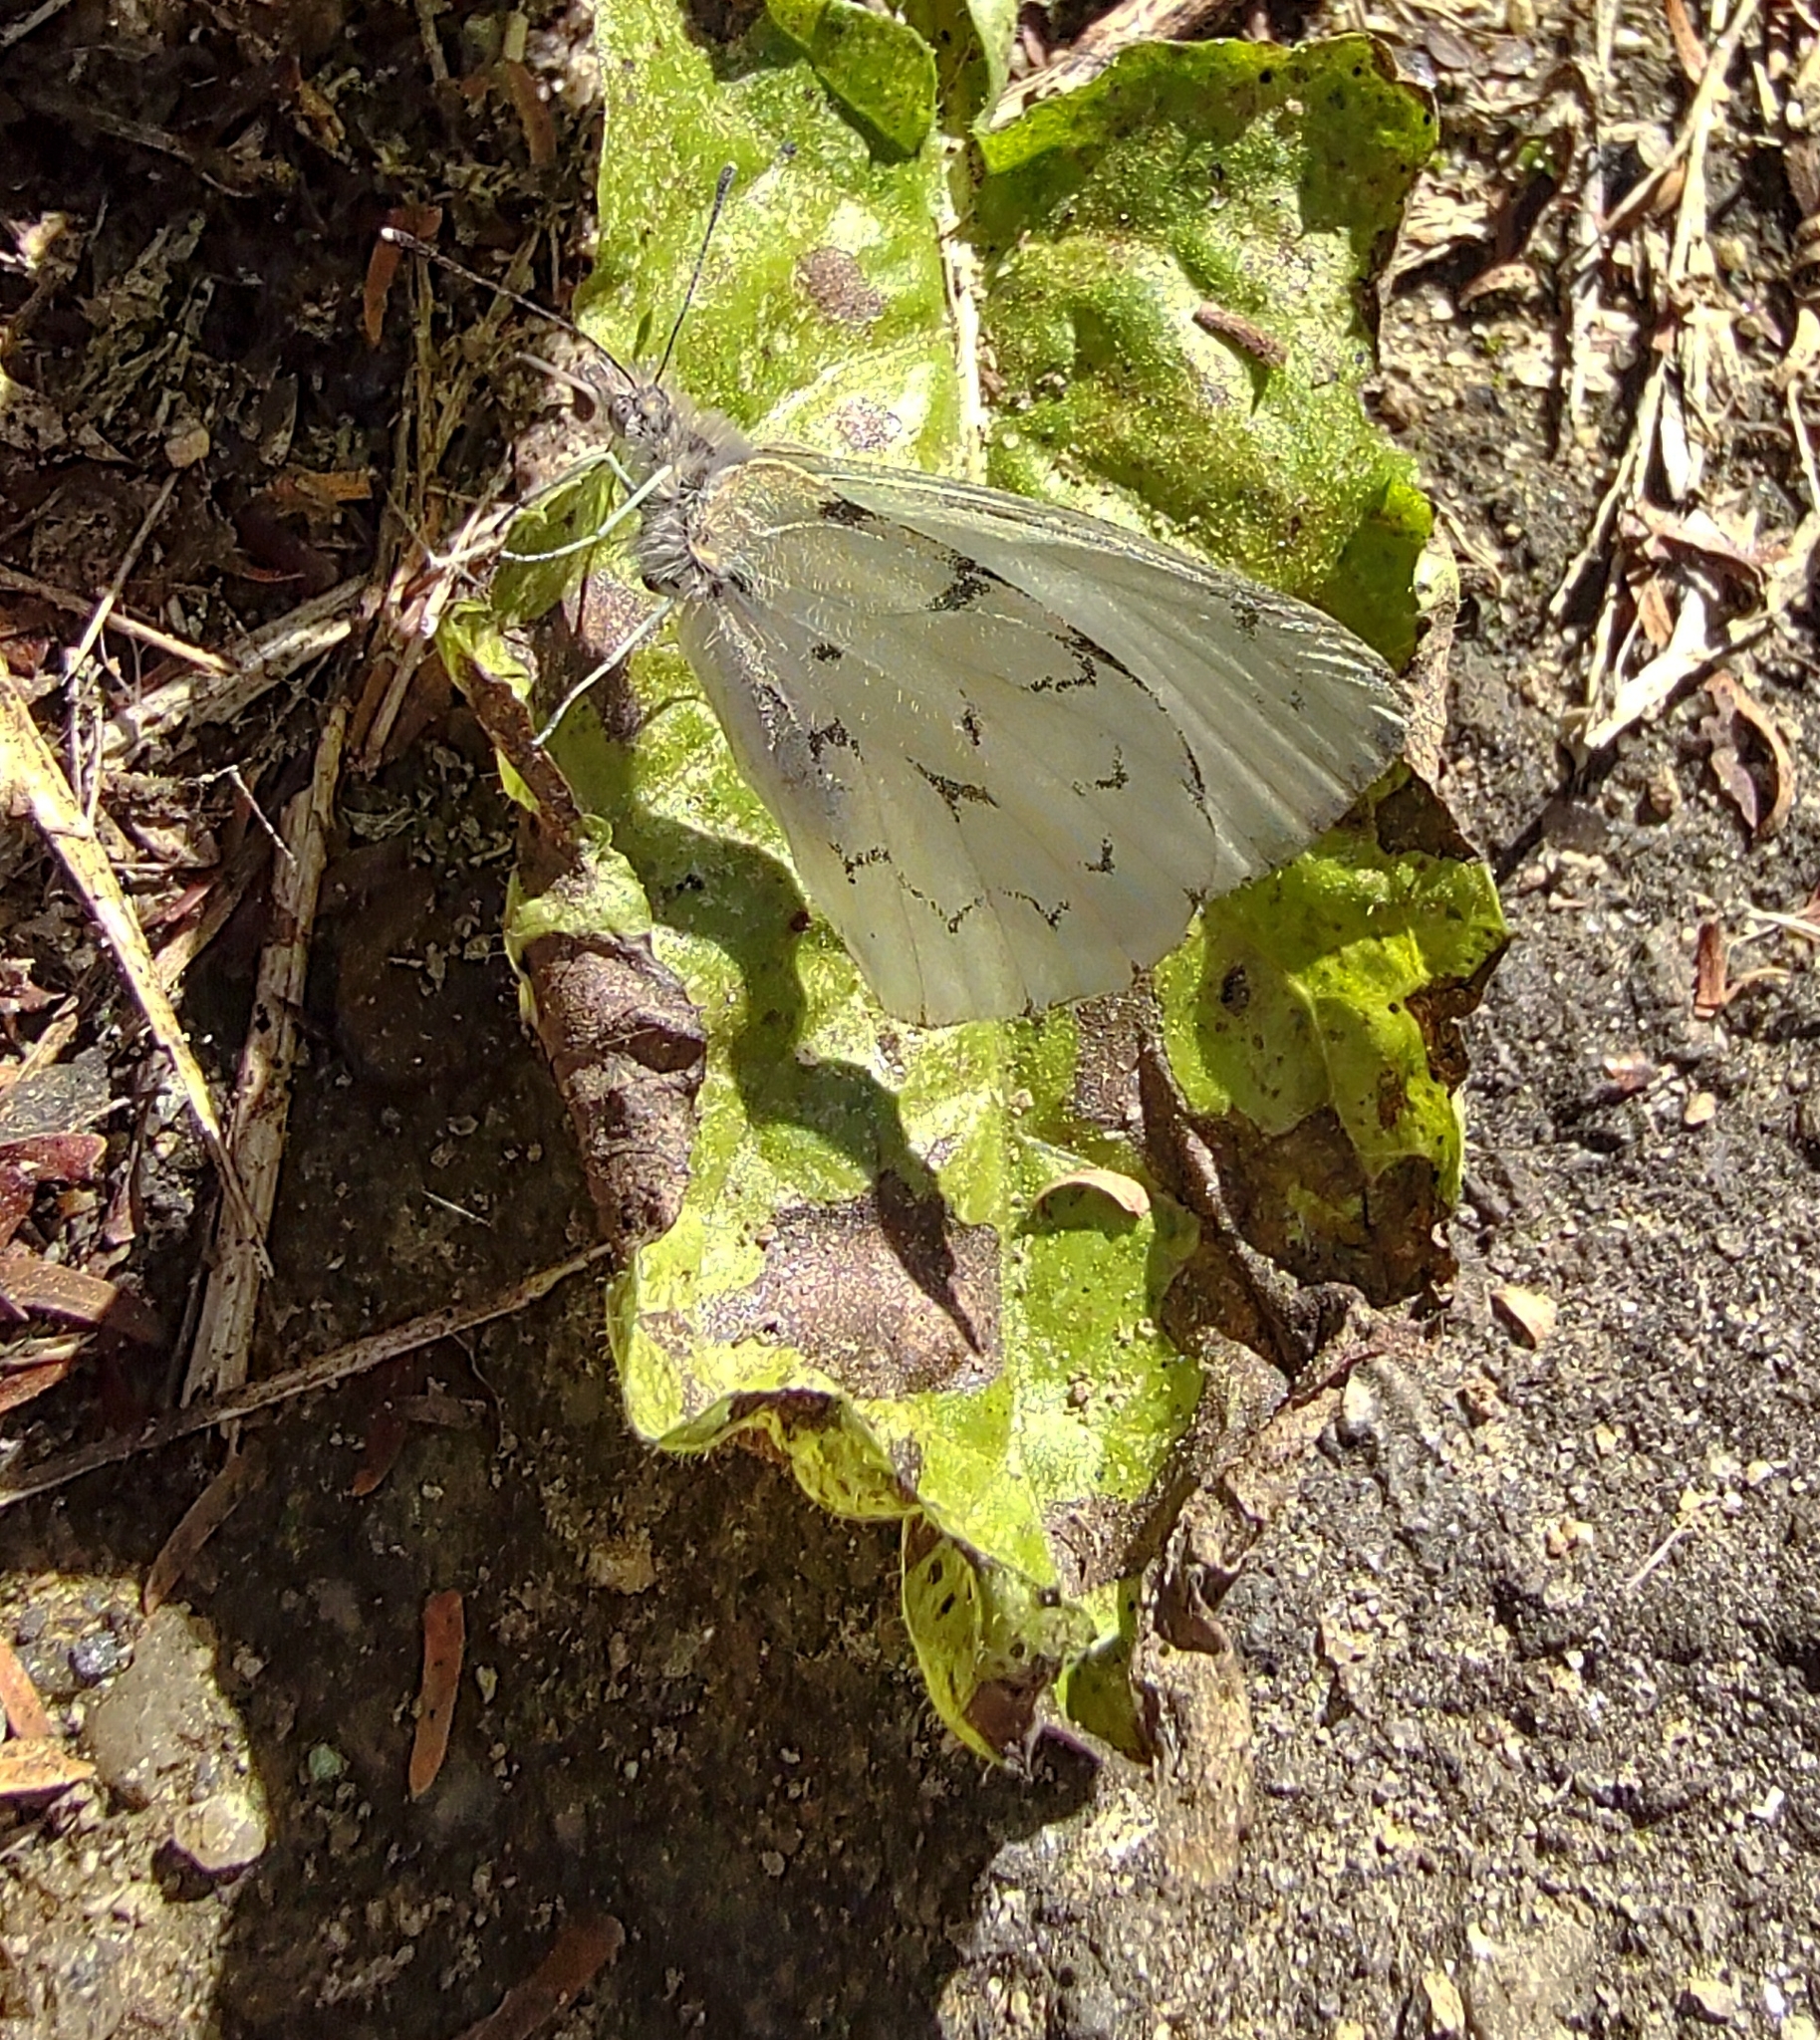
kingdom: Animalia
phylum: Arthropoda
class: Insecta
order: Lepidoptera
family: Pieridae
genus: Hesperocharis
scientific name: Hesperocharis paranensis
